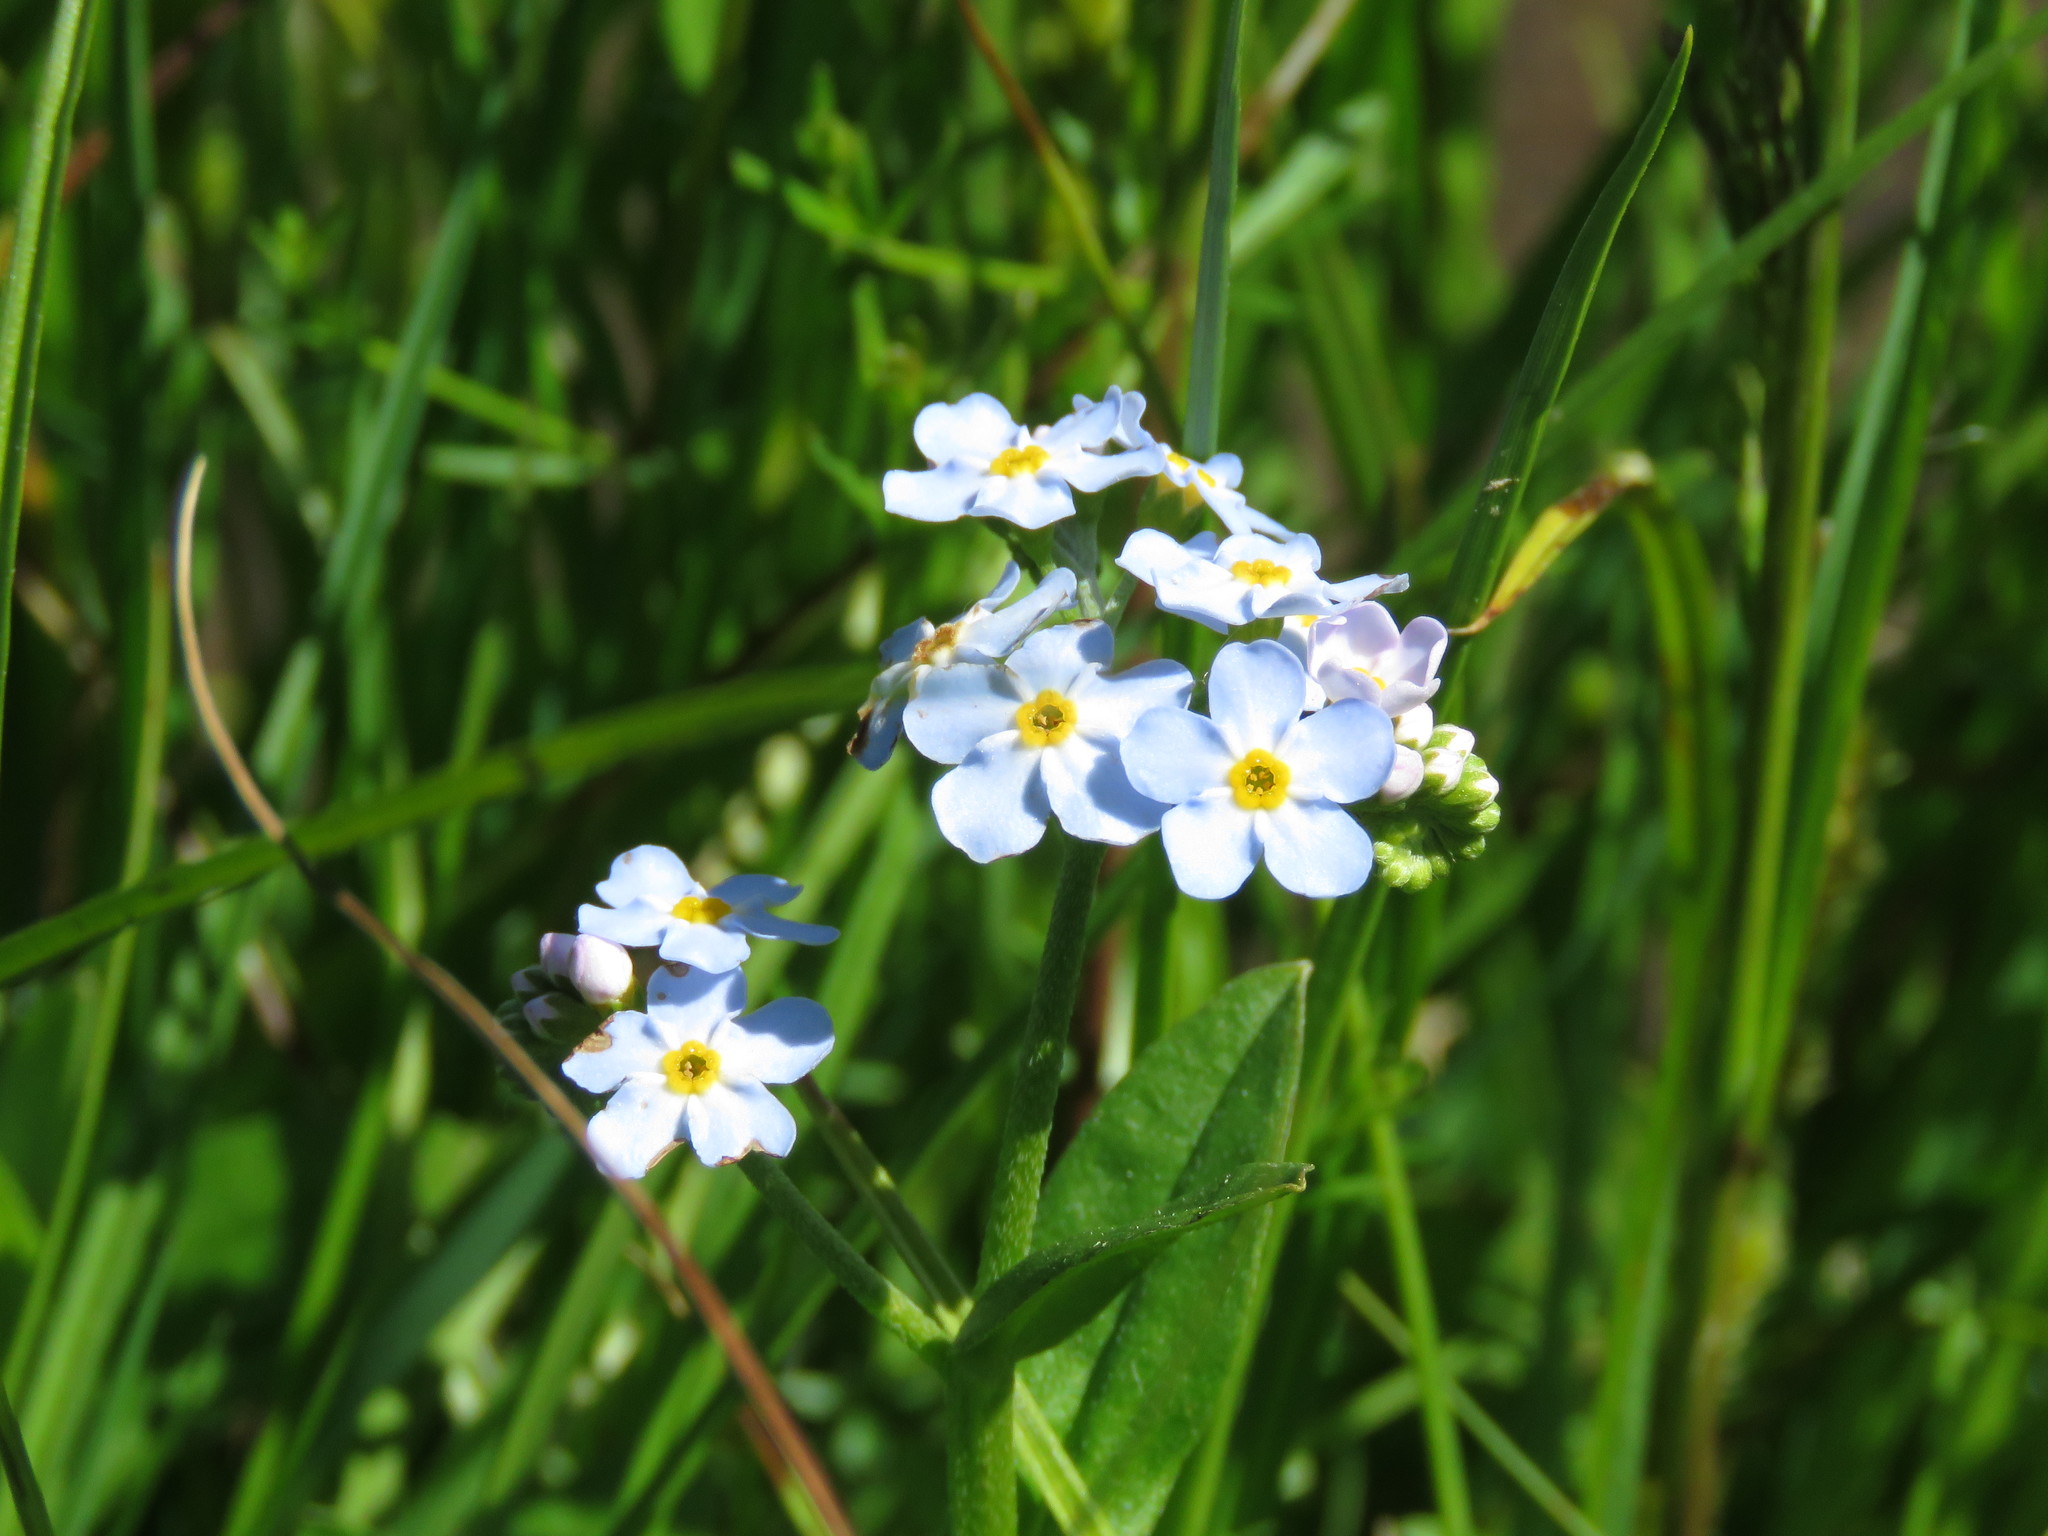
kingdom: Plantae
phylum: Tracheophyta
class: Magnoliopsida
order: Boraginales
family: Boraginaceae
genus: Myosotis
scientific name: Myosotis scorpioides
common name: Water forget-me-not
